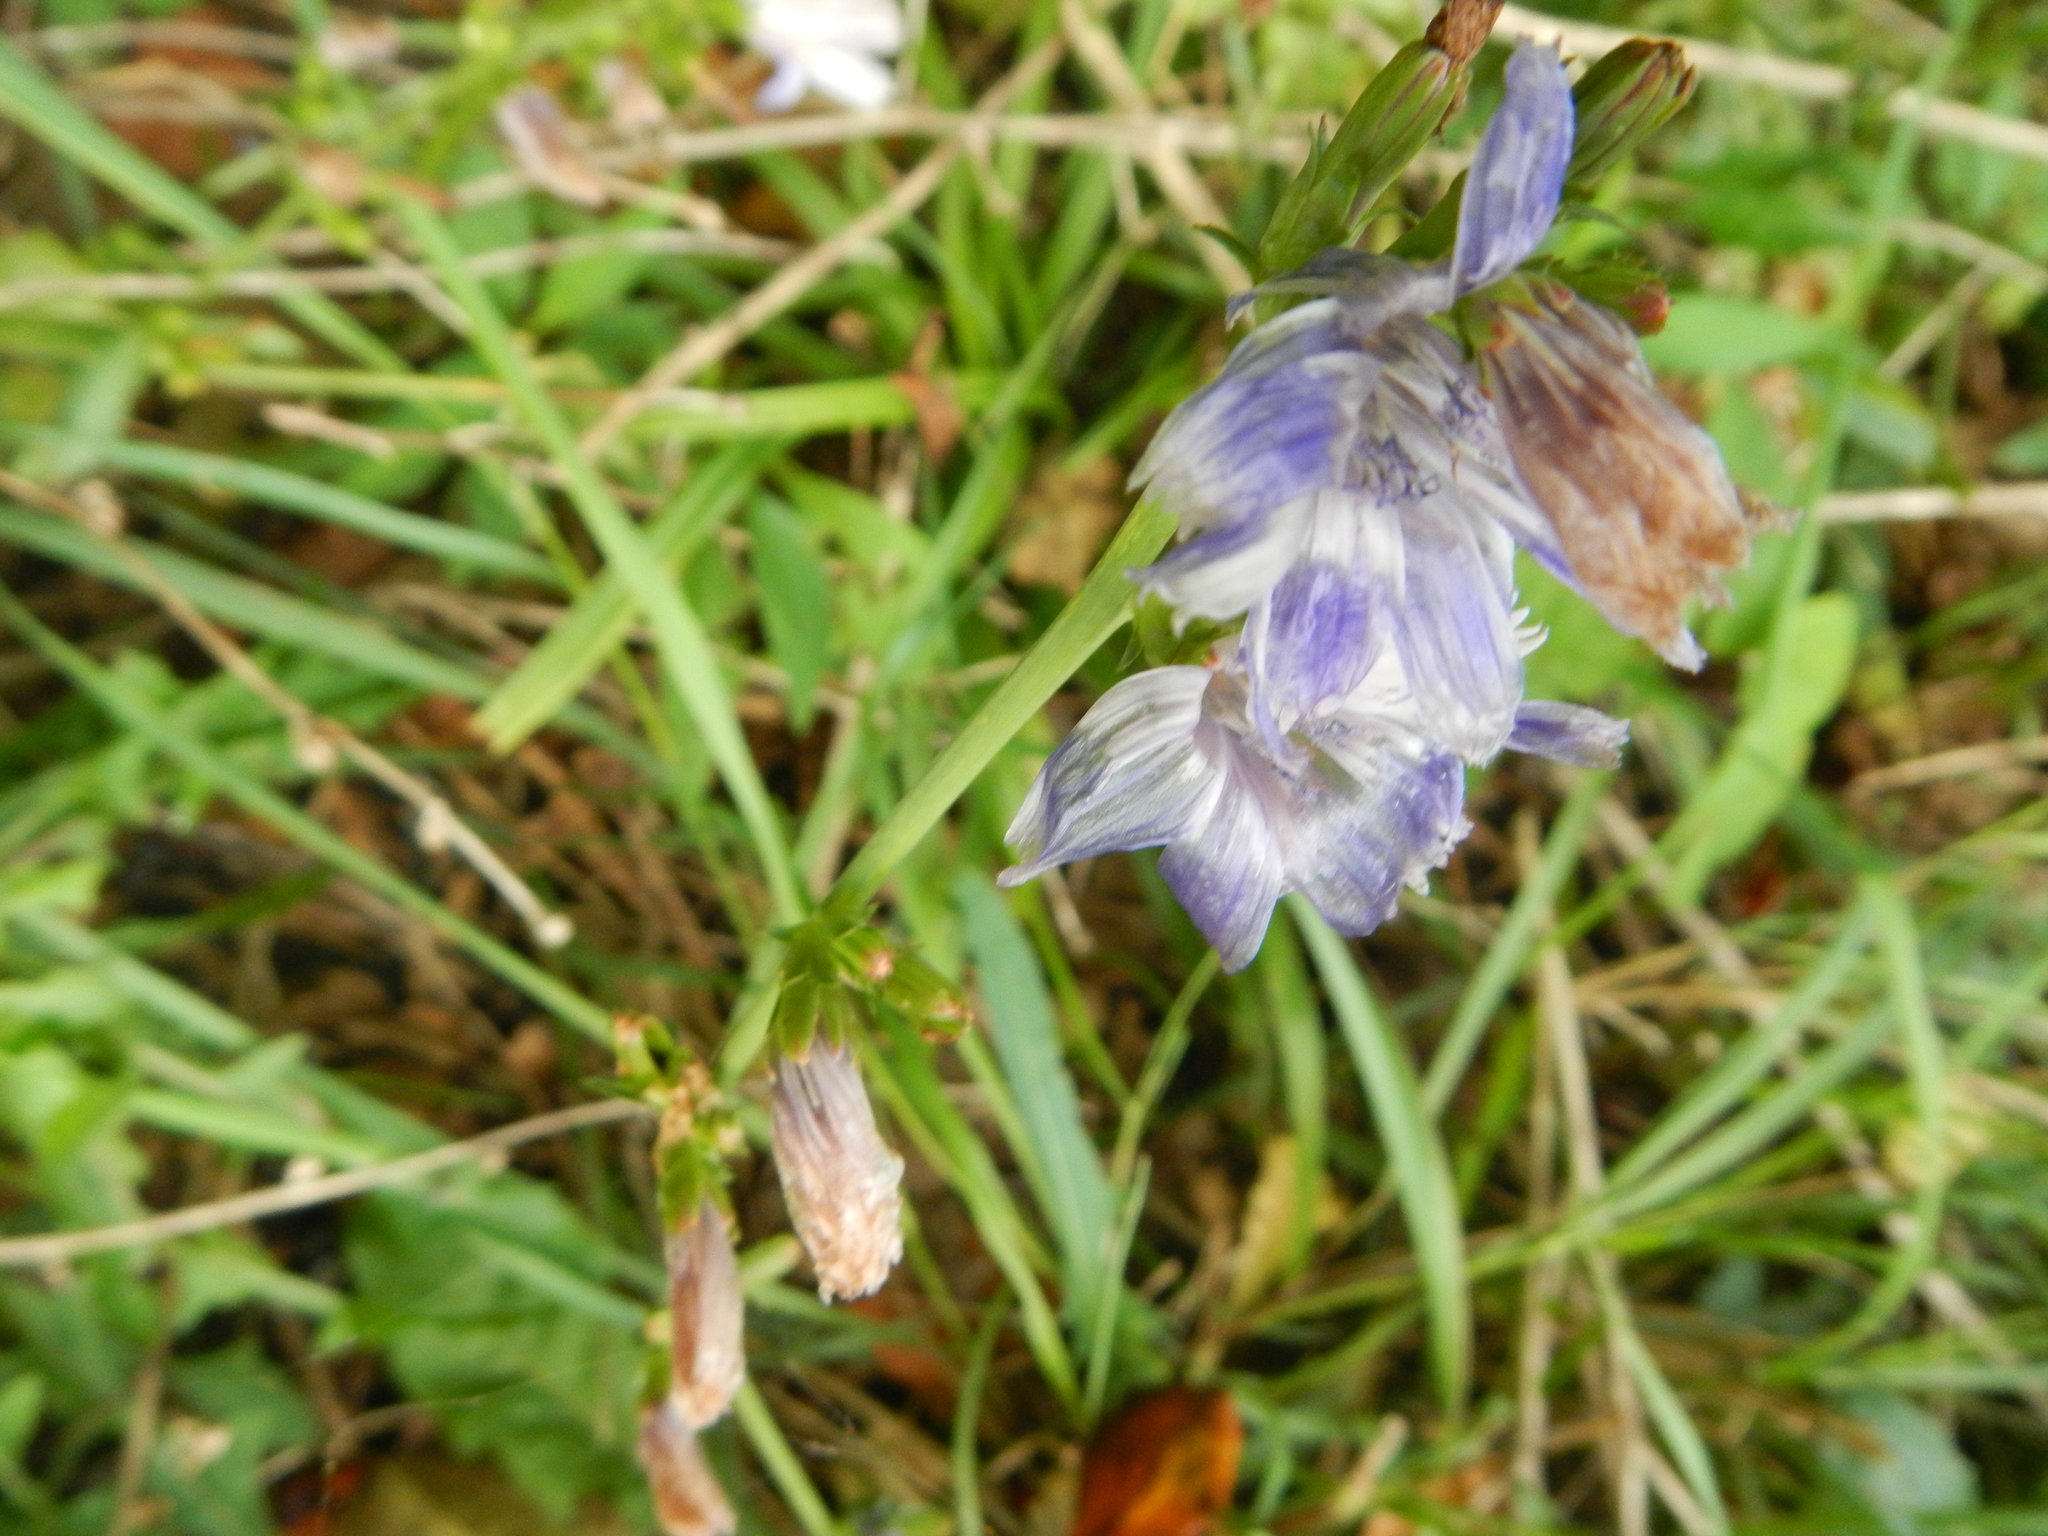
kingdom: Plantae
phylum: Tracheophyta
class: Magnoliopsida
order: Asterales
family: Asteraceae
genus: Cichorium
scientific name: Cichorium intybus
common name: Chicory
